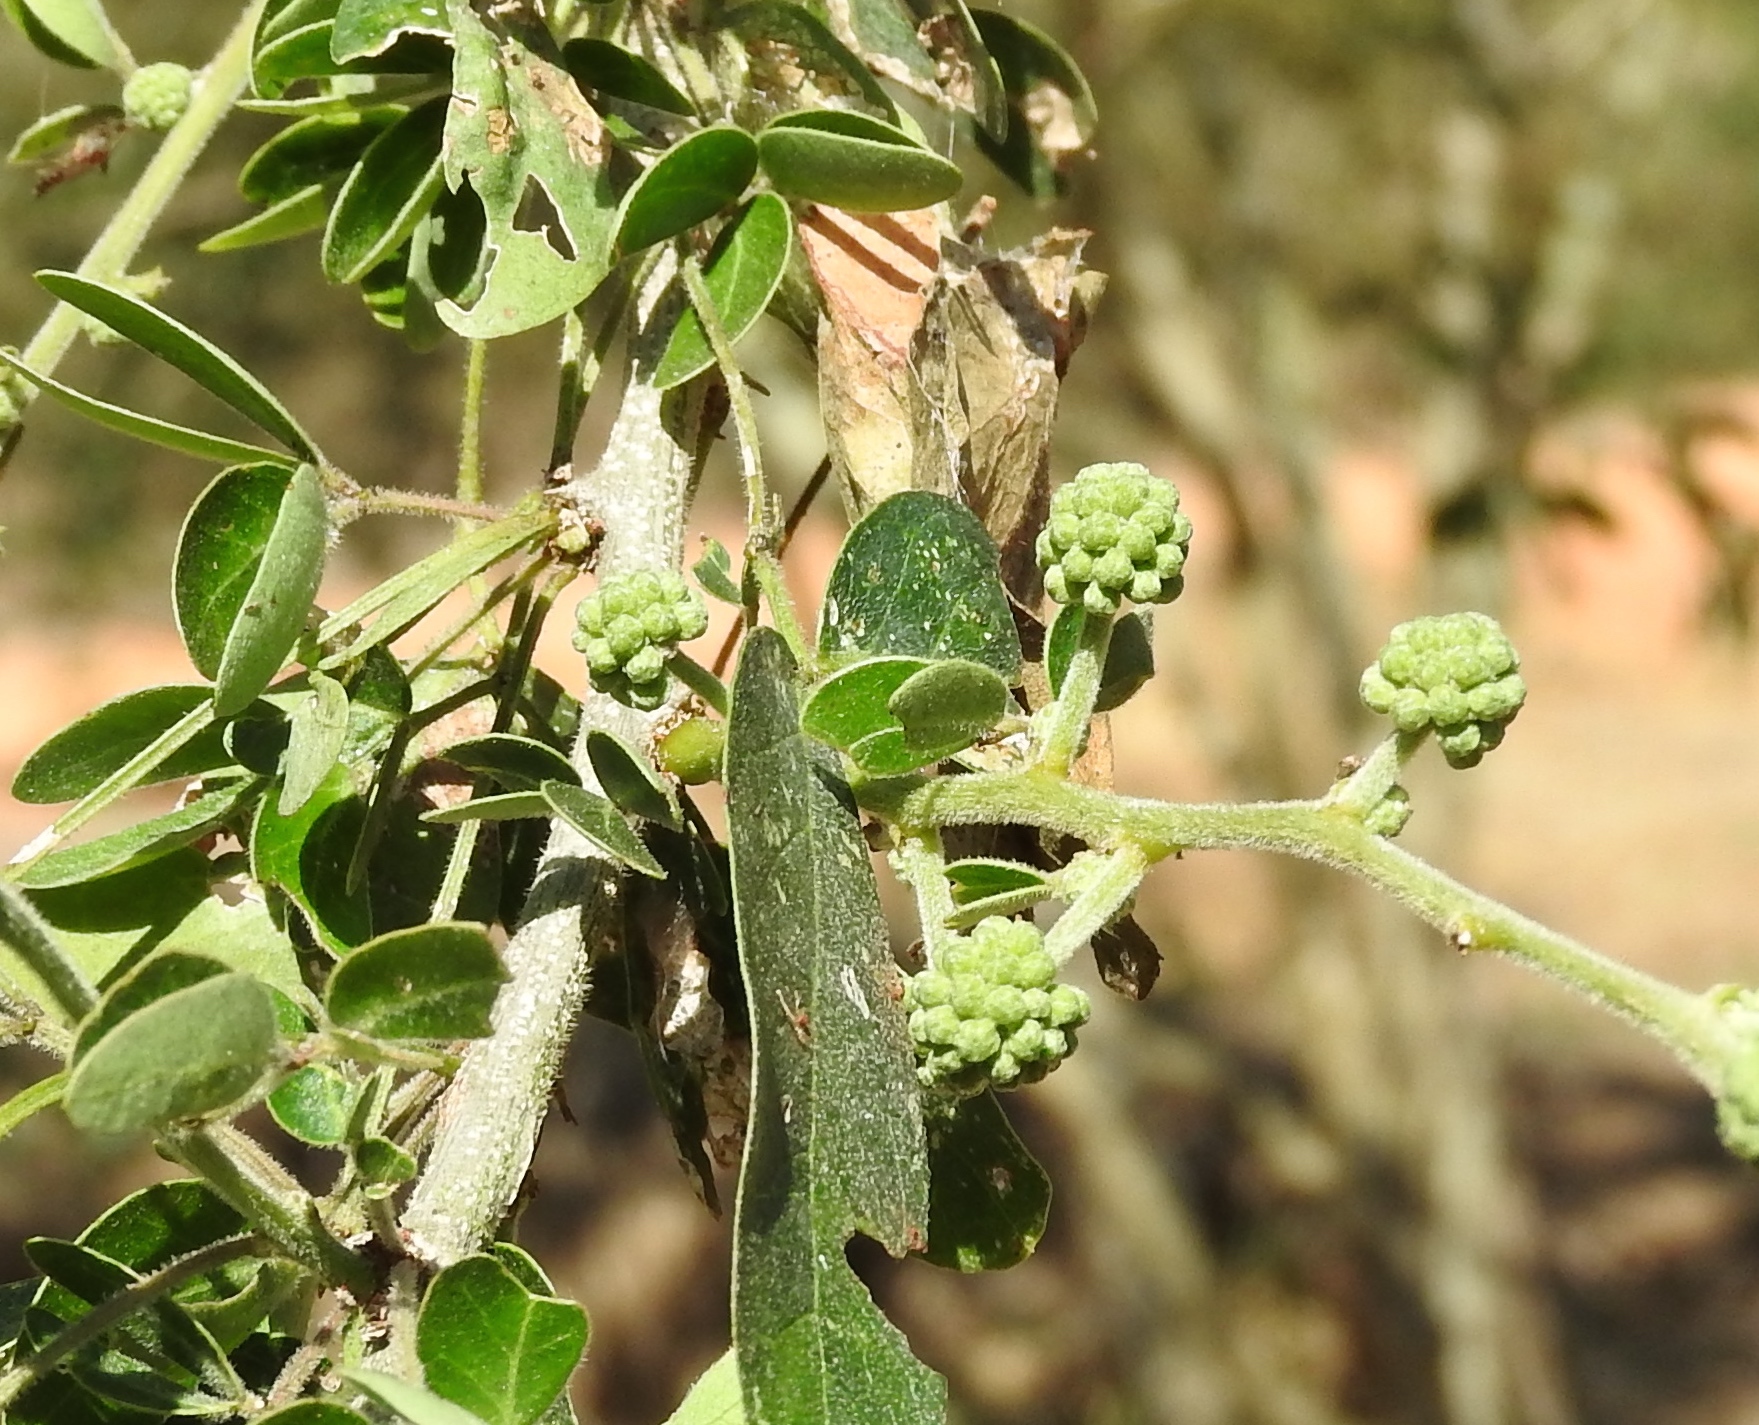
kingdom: Plantae
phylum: Tracheophyta
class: Magnoliopsida
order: Fabales
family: Fabaceae
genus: Pithecellobium
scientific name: Pithecellobium dulce
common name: Monkeypod
